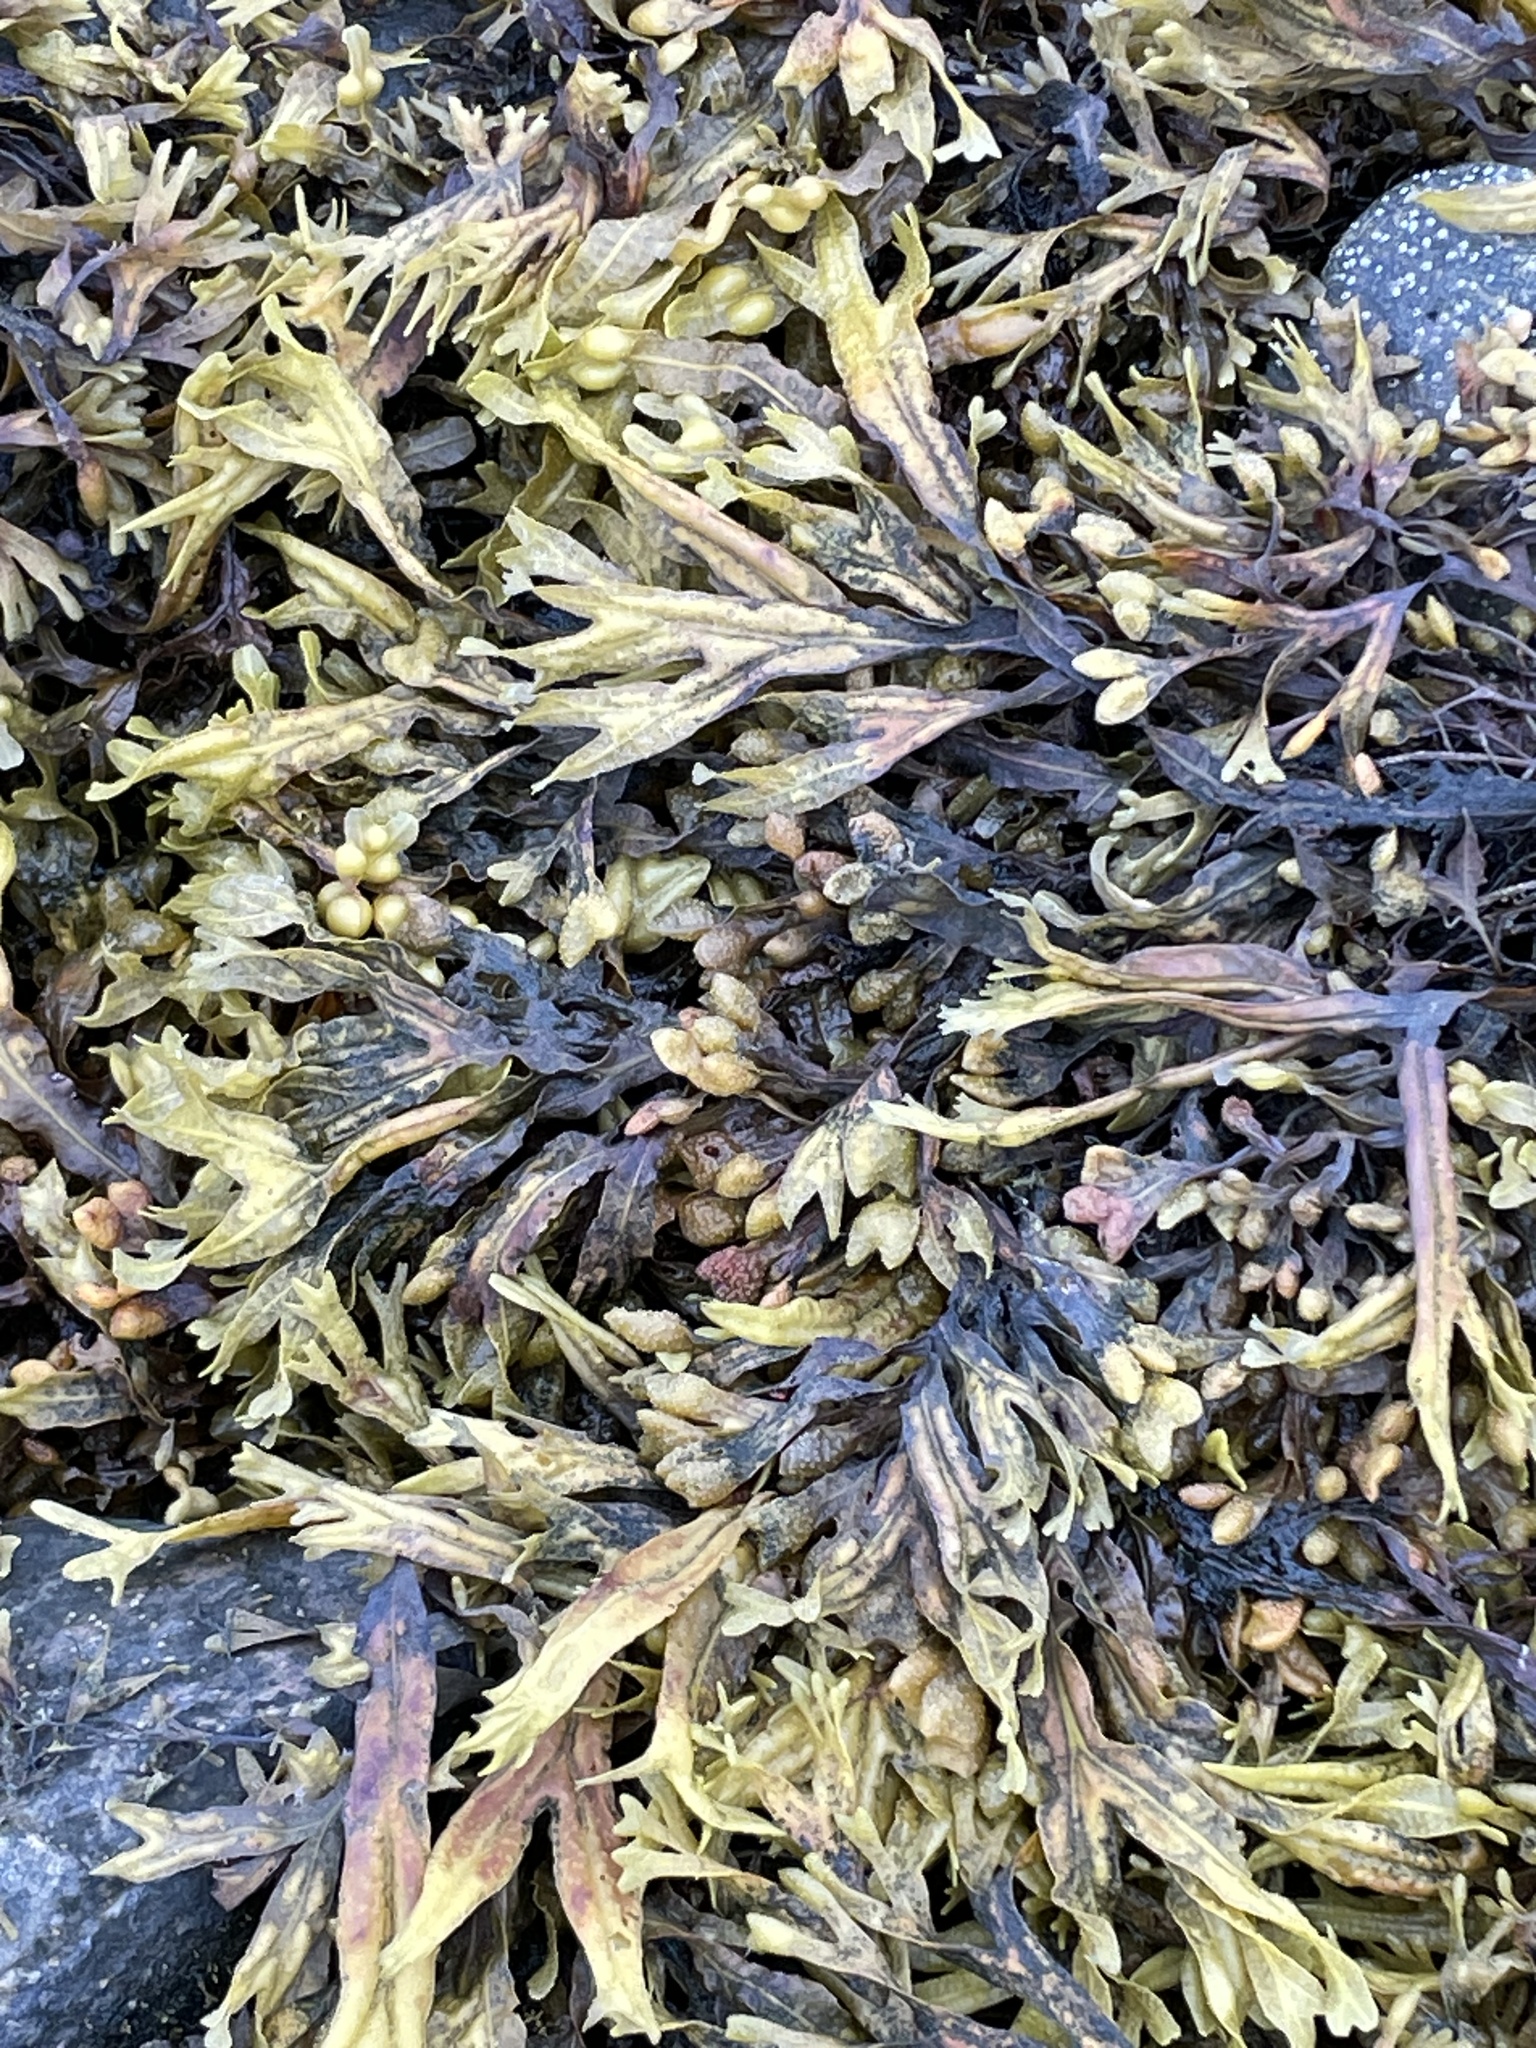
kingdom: Chromista
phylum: Ochrophyta
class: Phaeophyceae
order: Fucales
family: Fucaceae
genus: Fucus
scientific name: Fucus vesiculosus
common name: Bladder wrack
